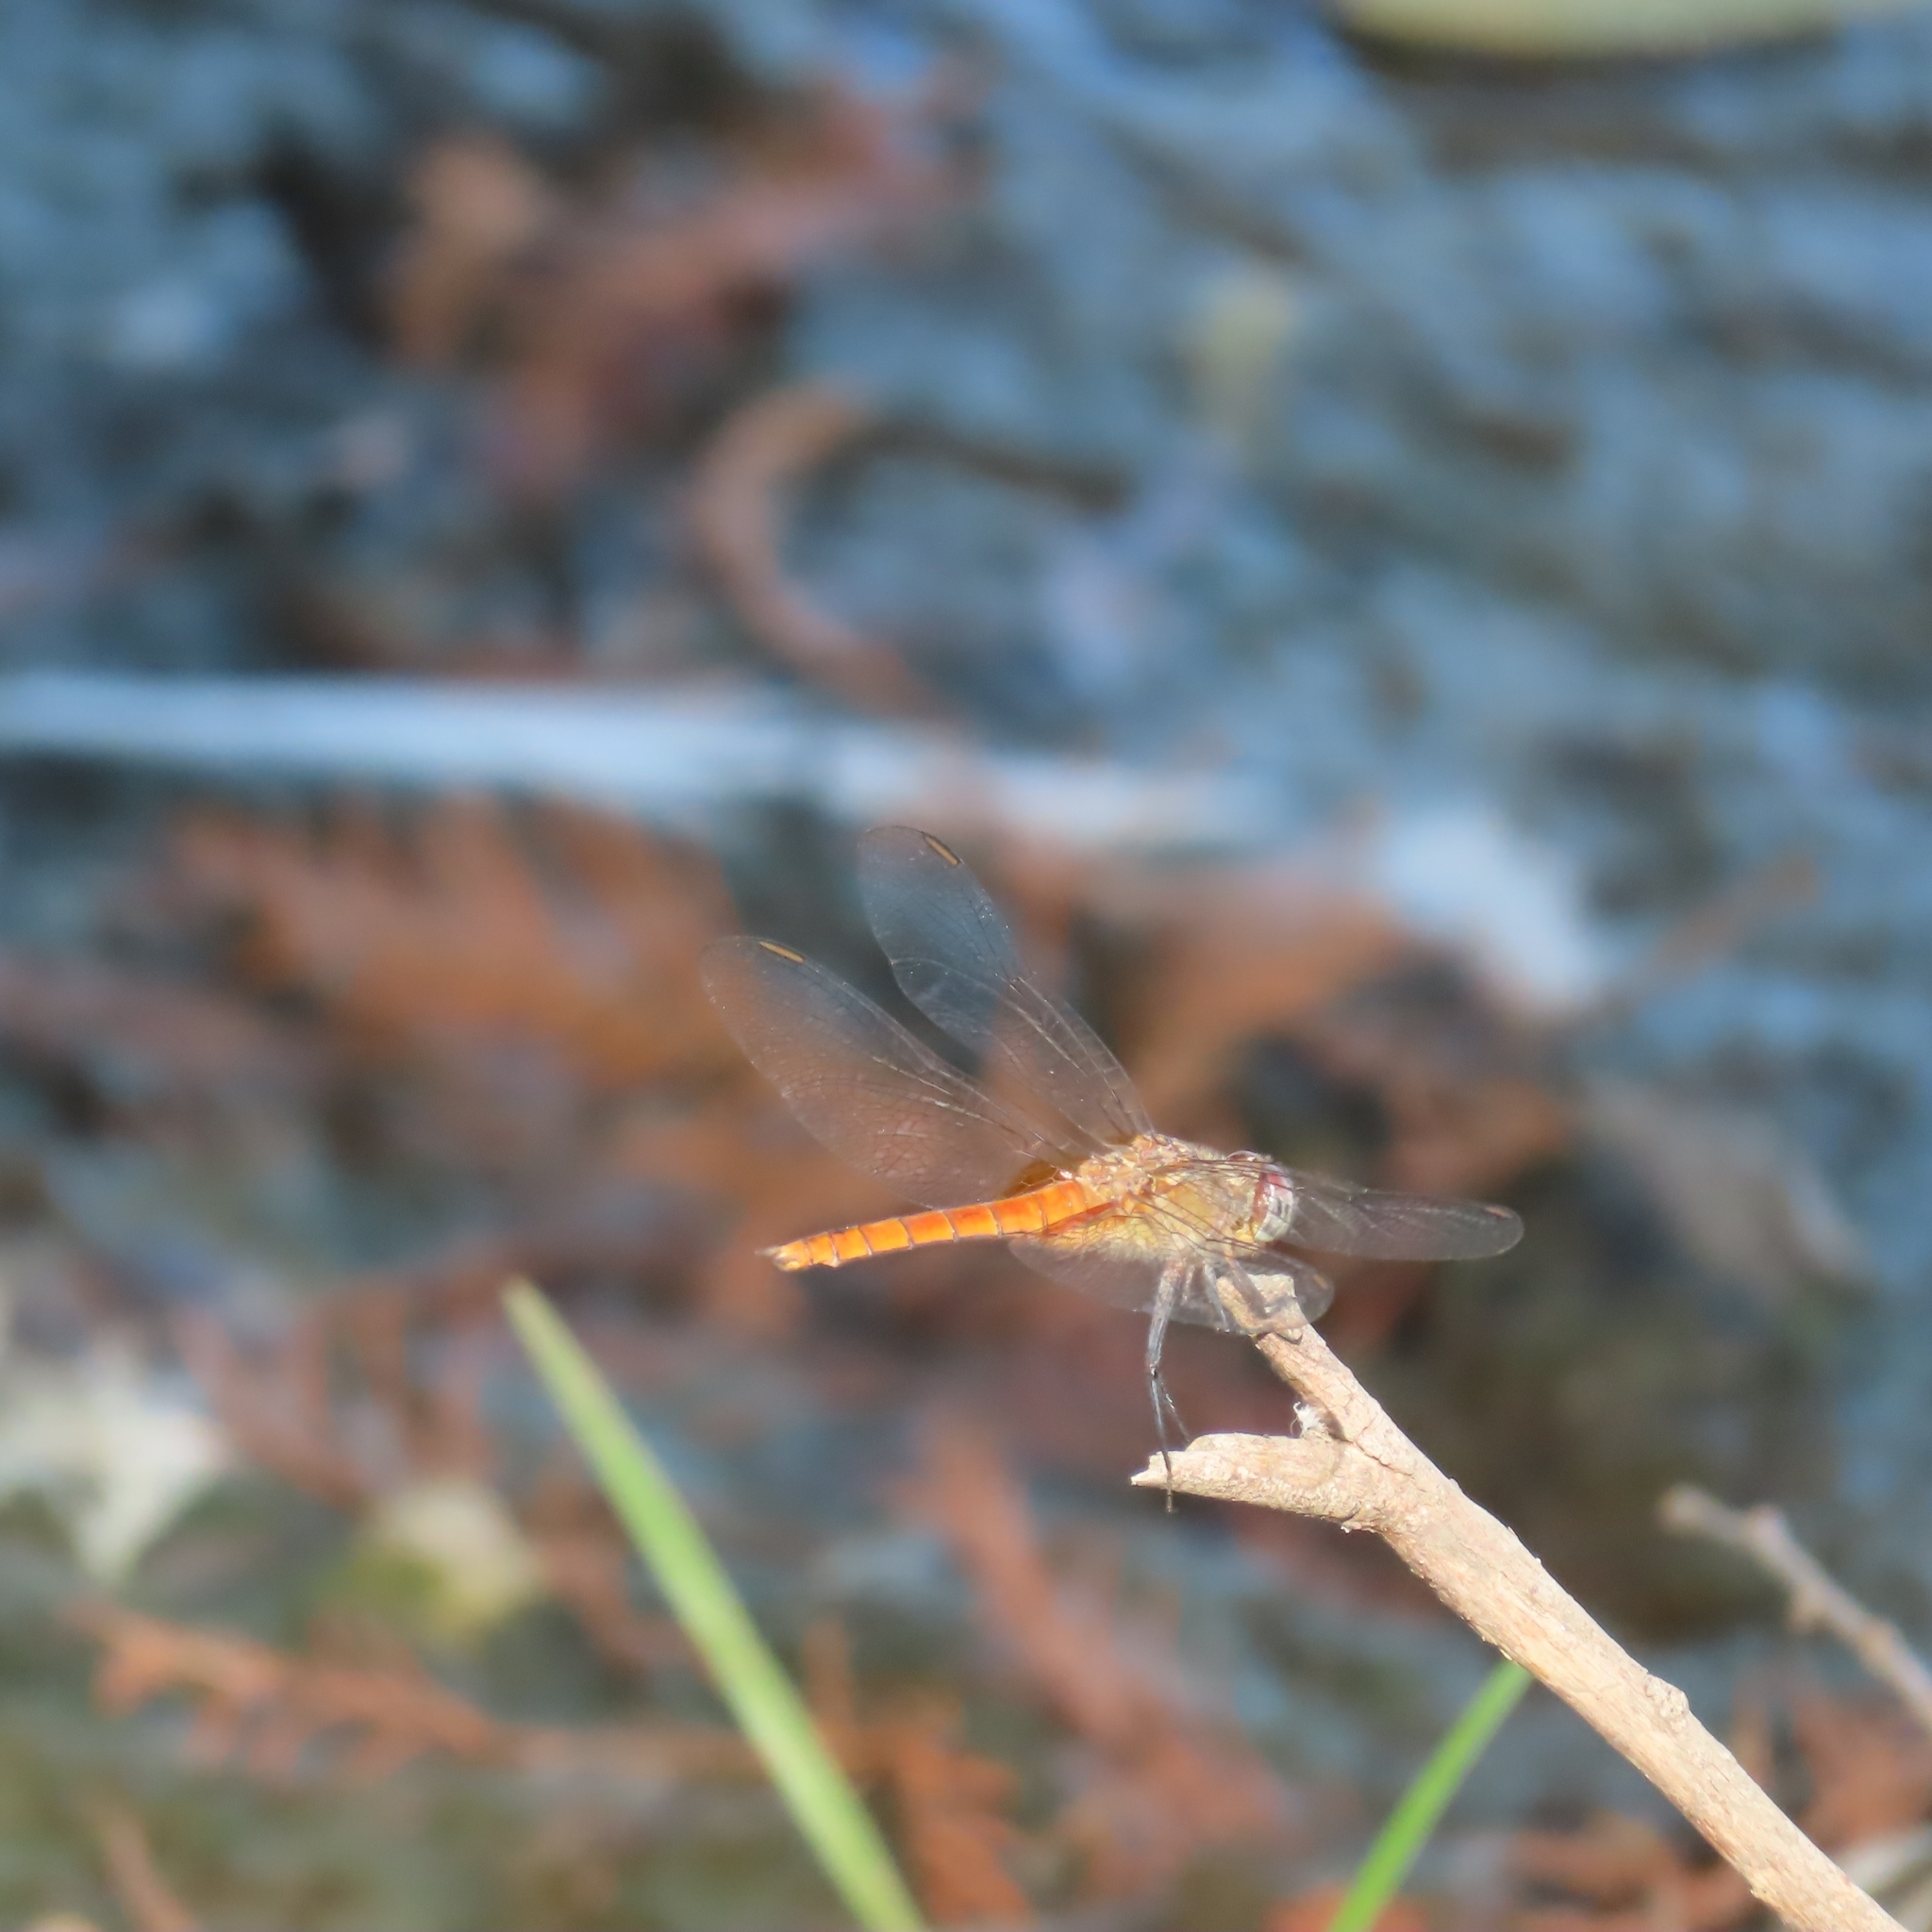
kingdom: Animalia
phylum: Arthropoda
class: Insecta
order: Odonata
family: Libellulidae
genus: Brachymesia
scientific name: Brachymesia furcata
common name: Red-taled pennant
